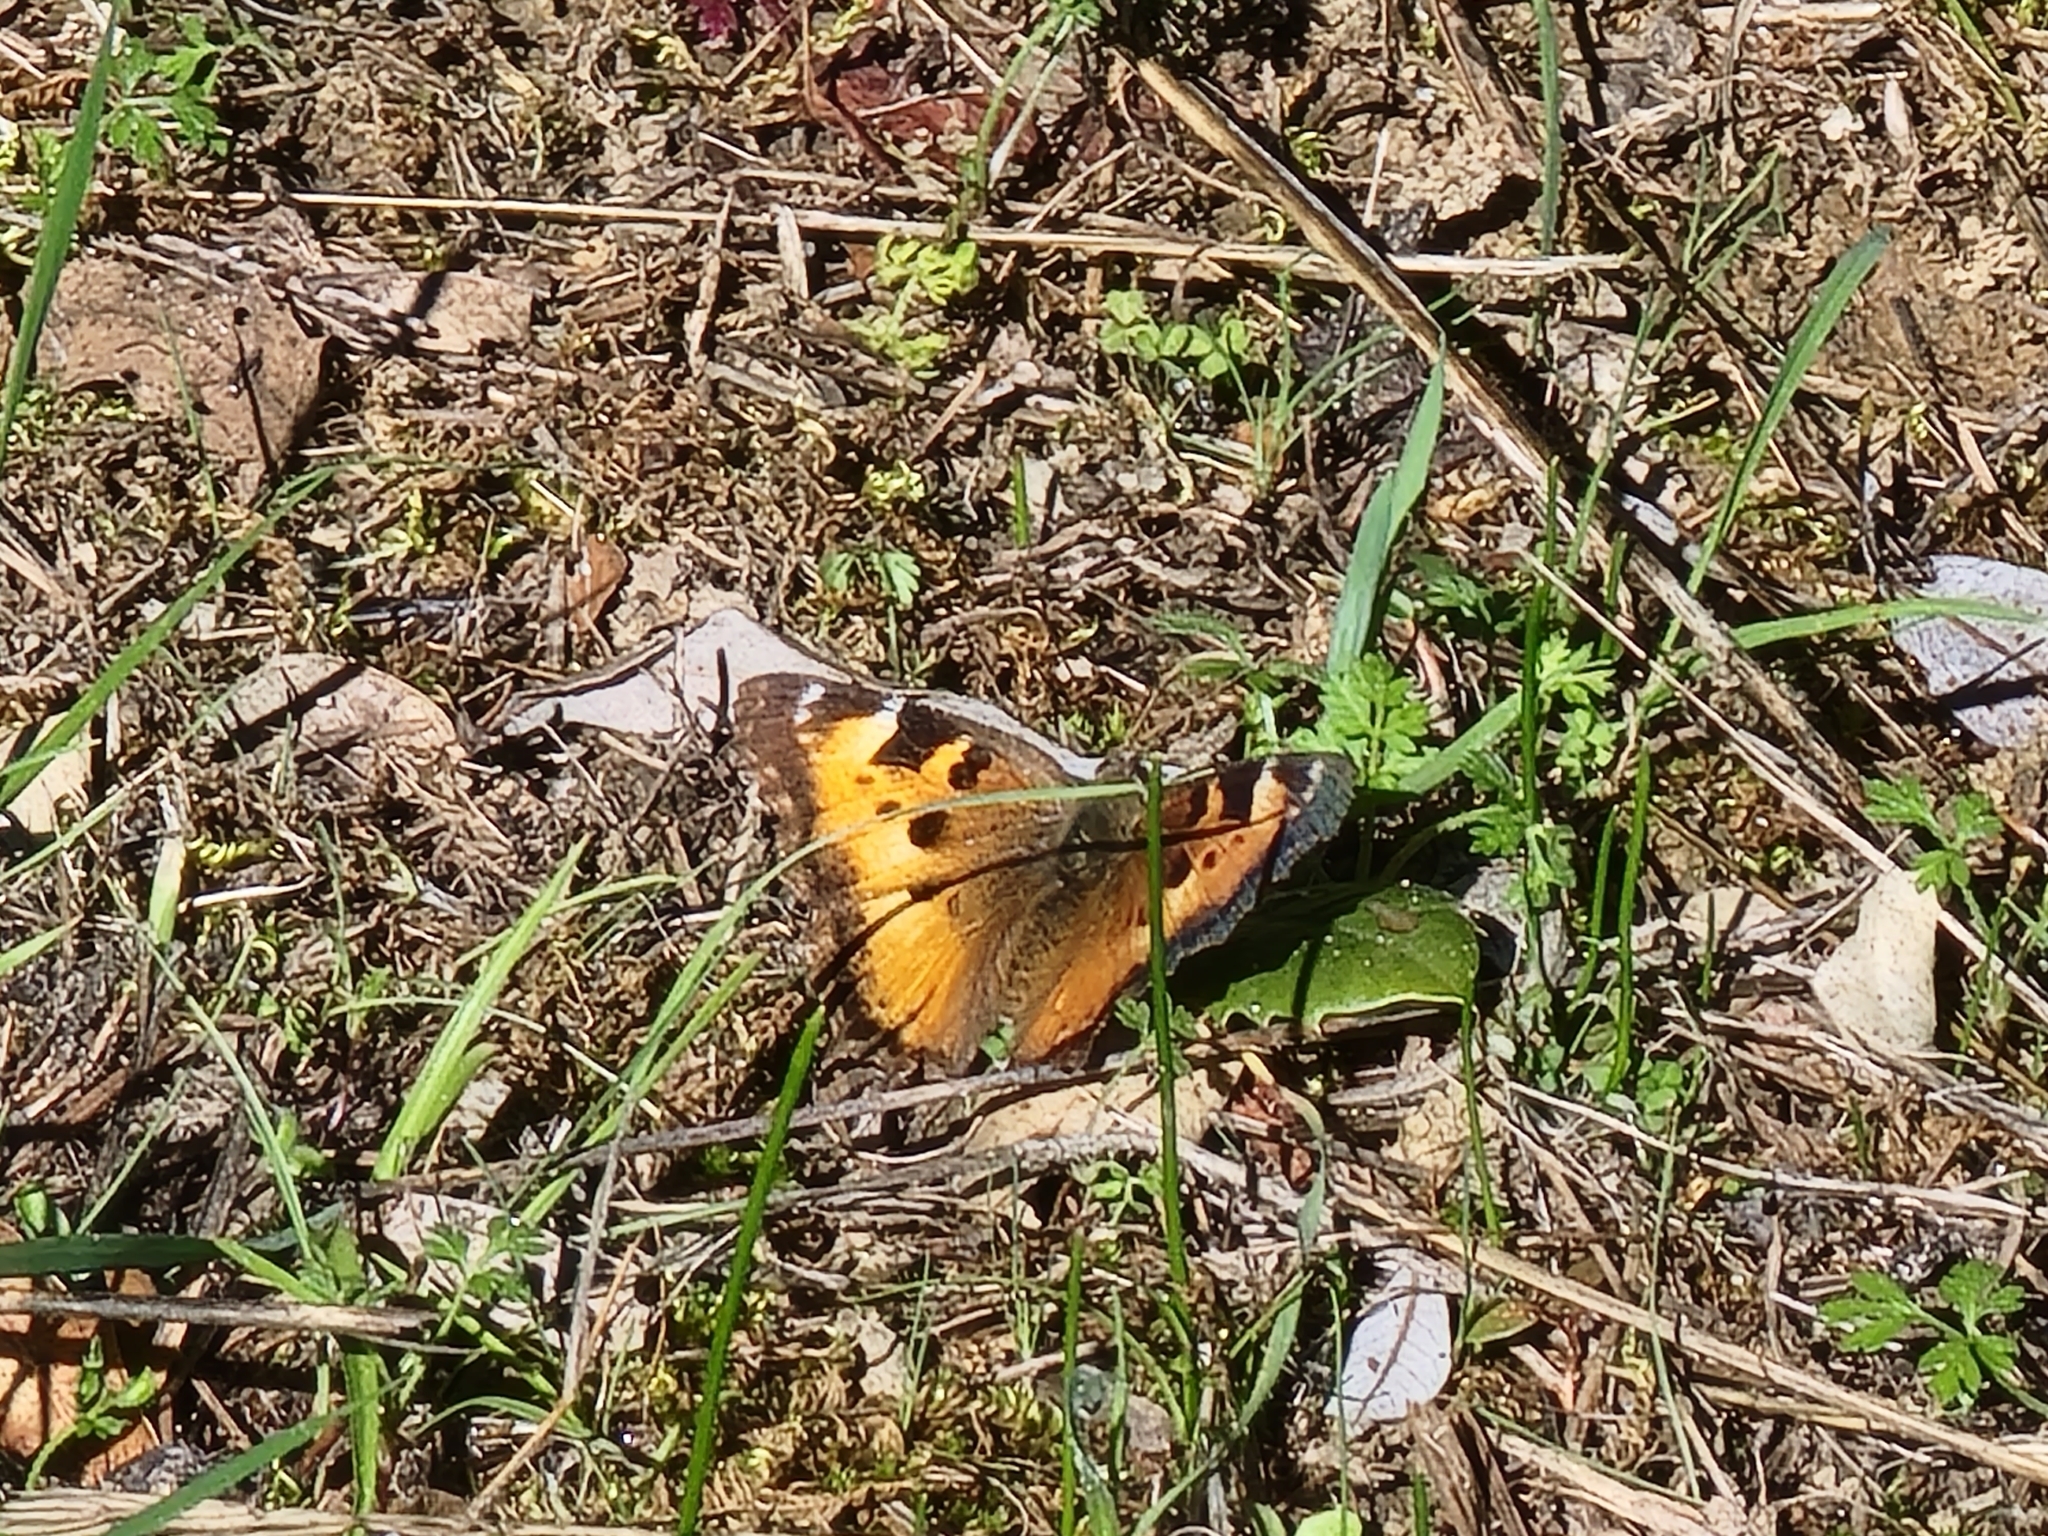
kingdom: Animalia
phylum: Arthropoda
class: Insecta
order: Lepidoptera
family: Nymphalidae
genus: Nymphalis
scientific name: Nymphalis californica
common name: California tortoiseshell
